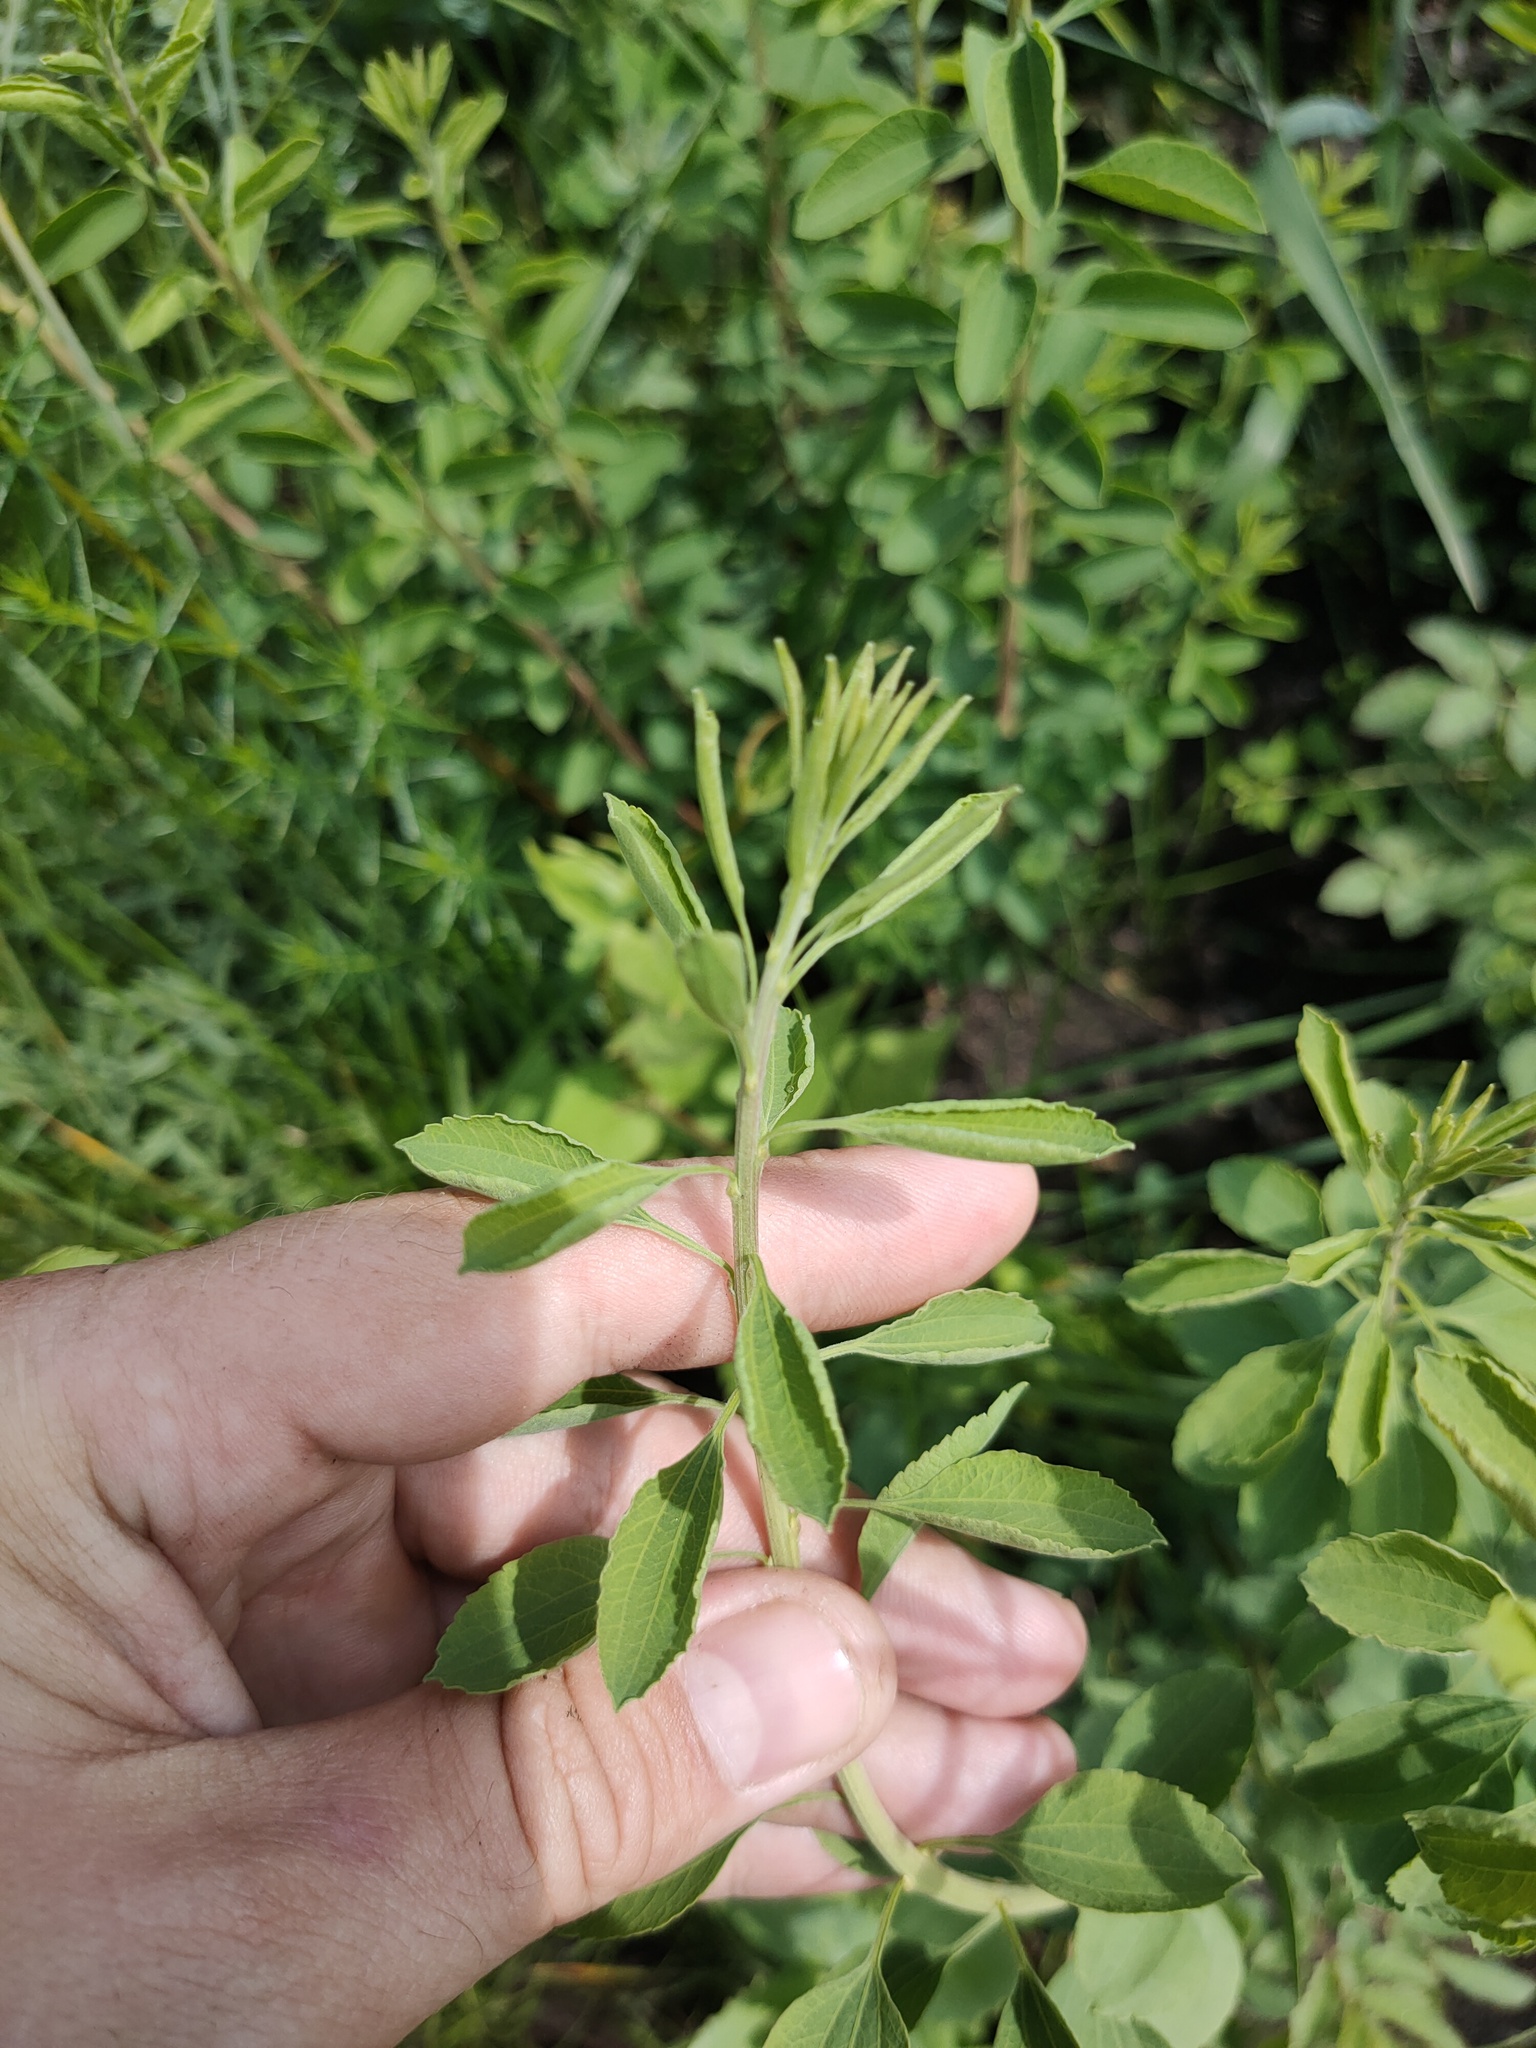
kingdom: Plantae
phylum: Tracheophyta
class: Magnoliopsida
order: Rosales
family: Rosaceae
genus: Spiraea
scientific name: Spiraea crenata
